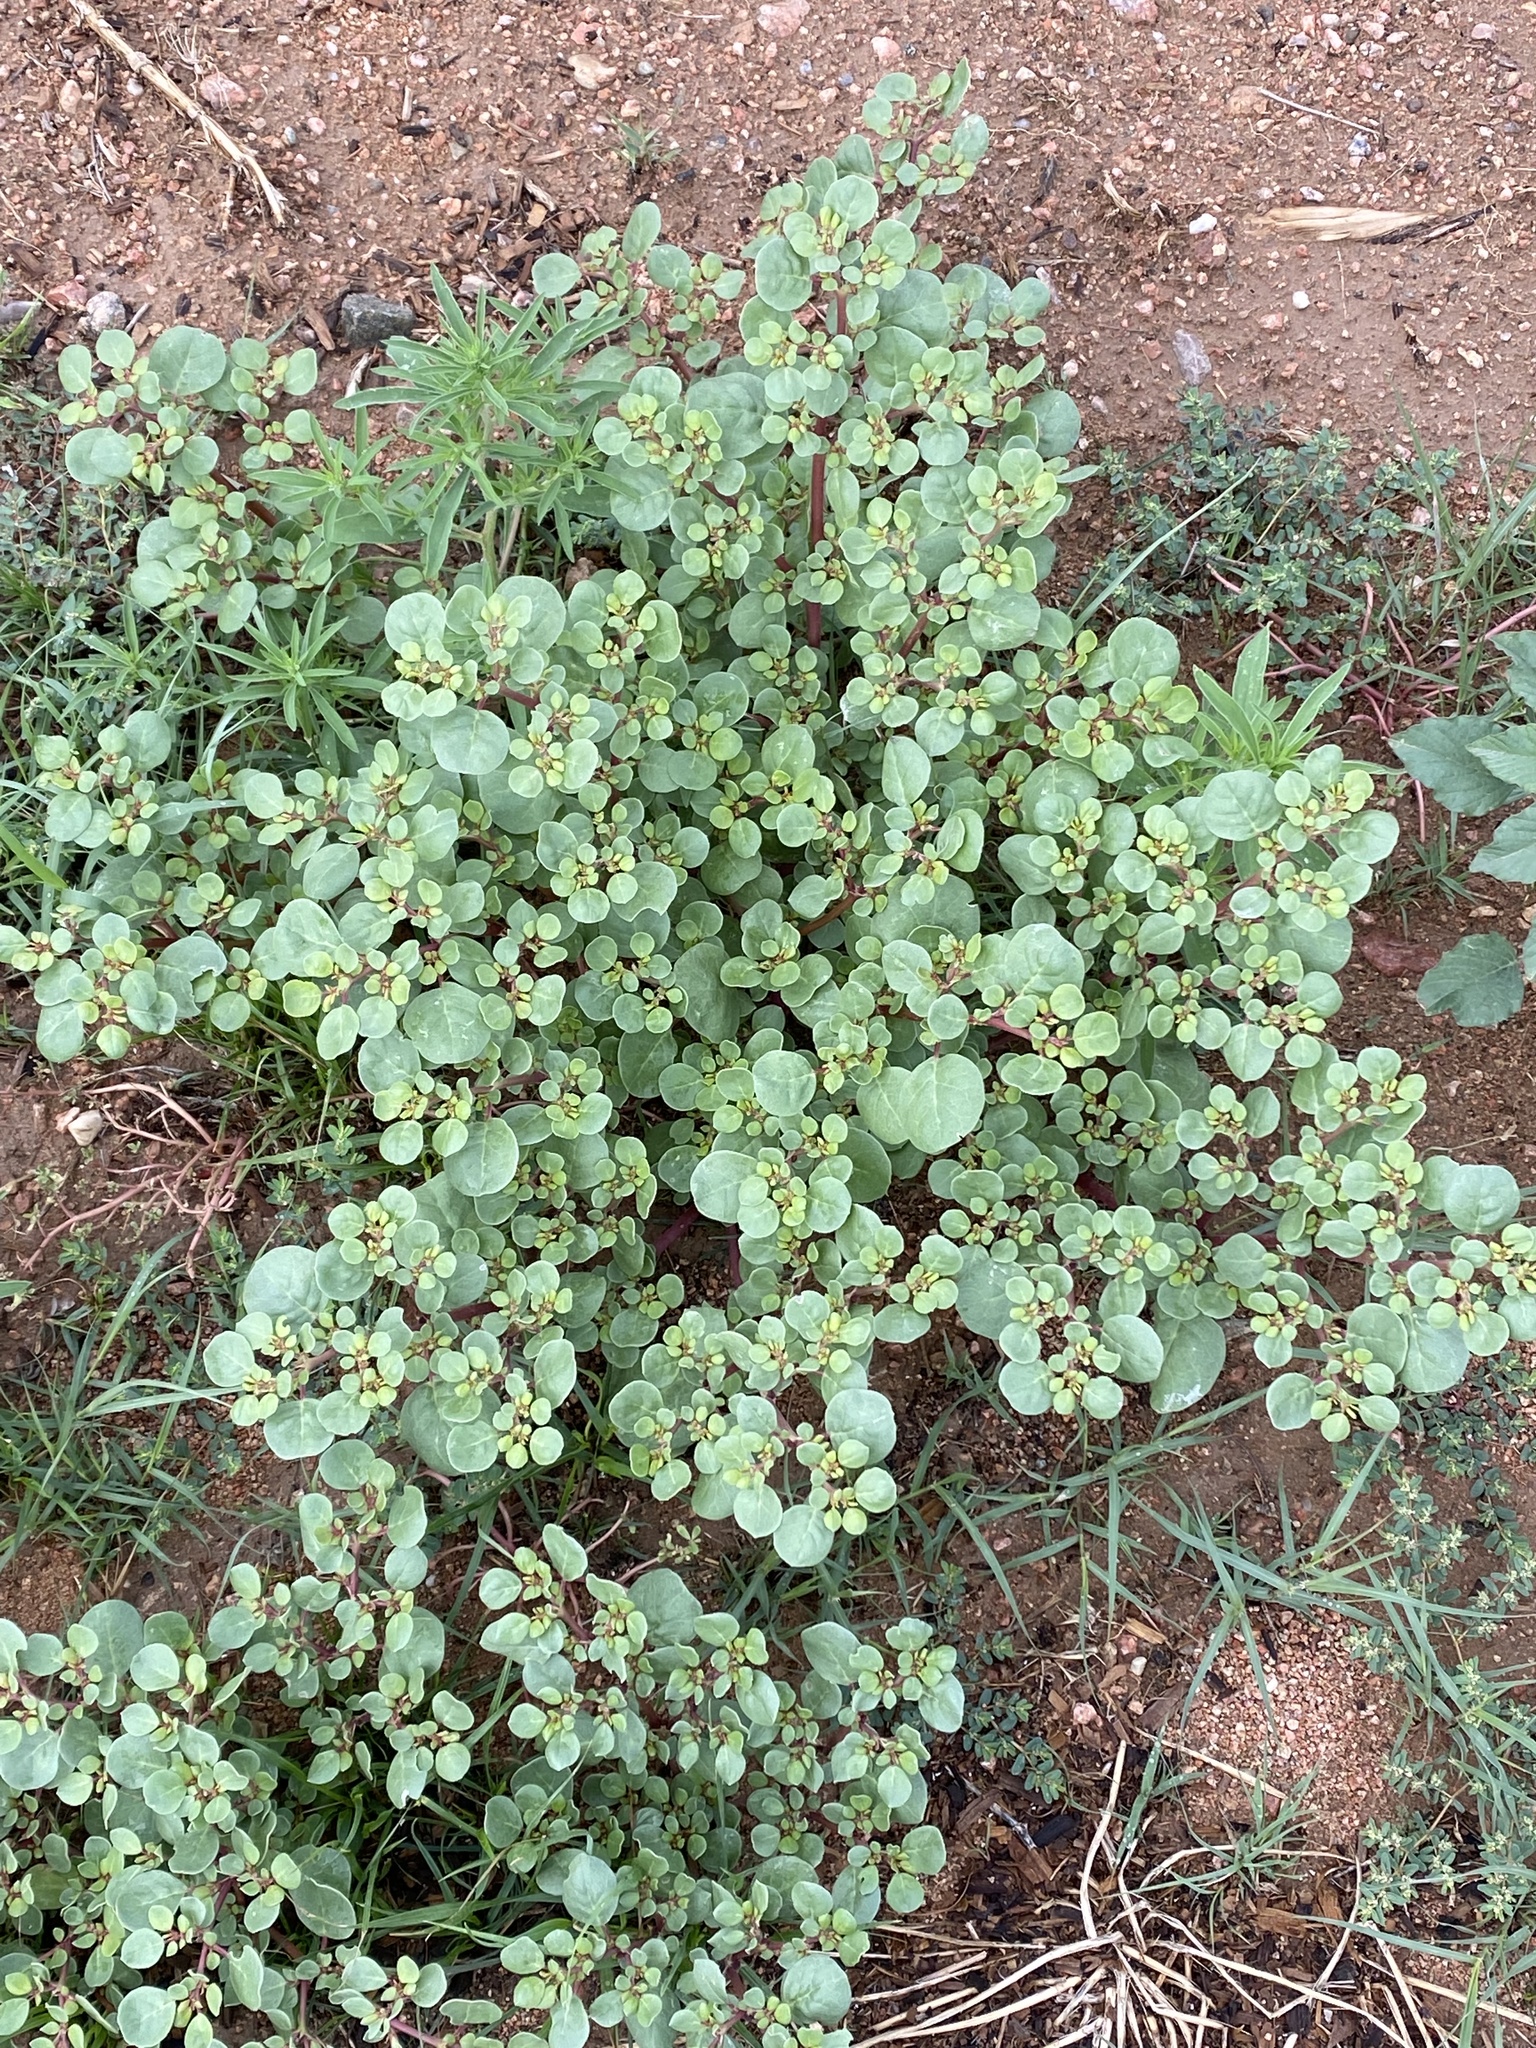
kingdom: Plantae
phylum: Tracheophyta
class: Magnoliopsida
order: Caryophyllales
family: Aizoaceae
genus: Trianthema
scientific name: Trianthema portulacastrum
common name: Desert horsepurslane
